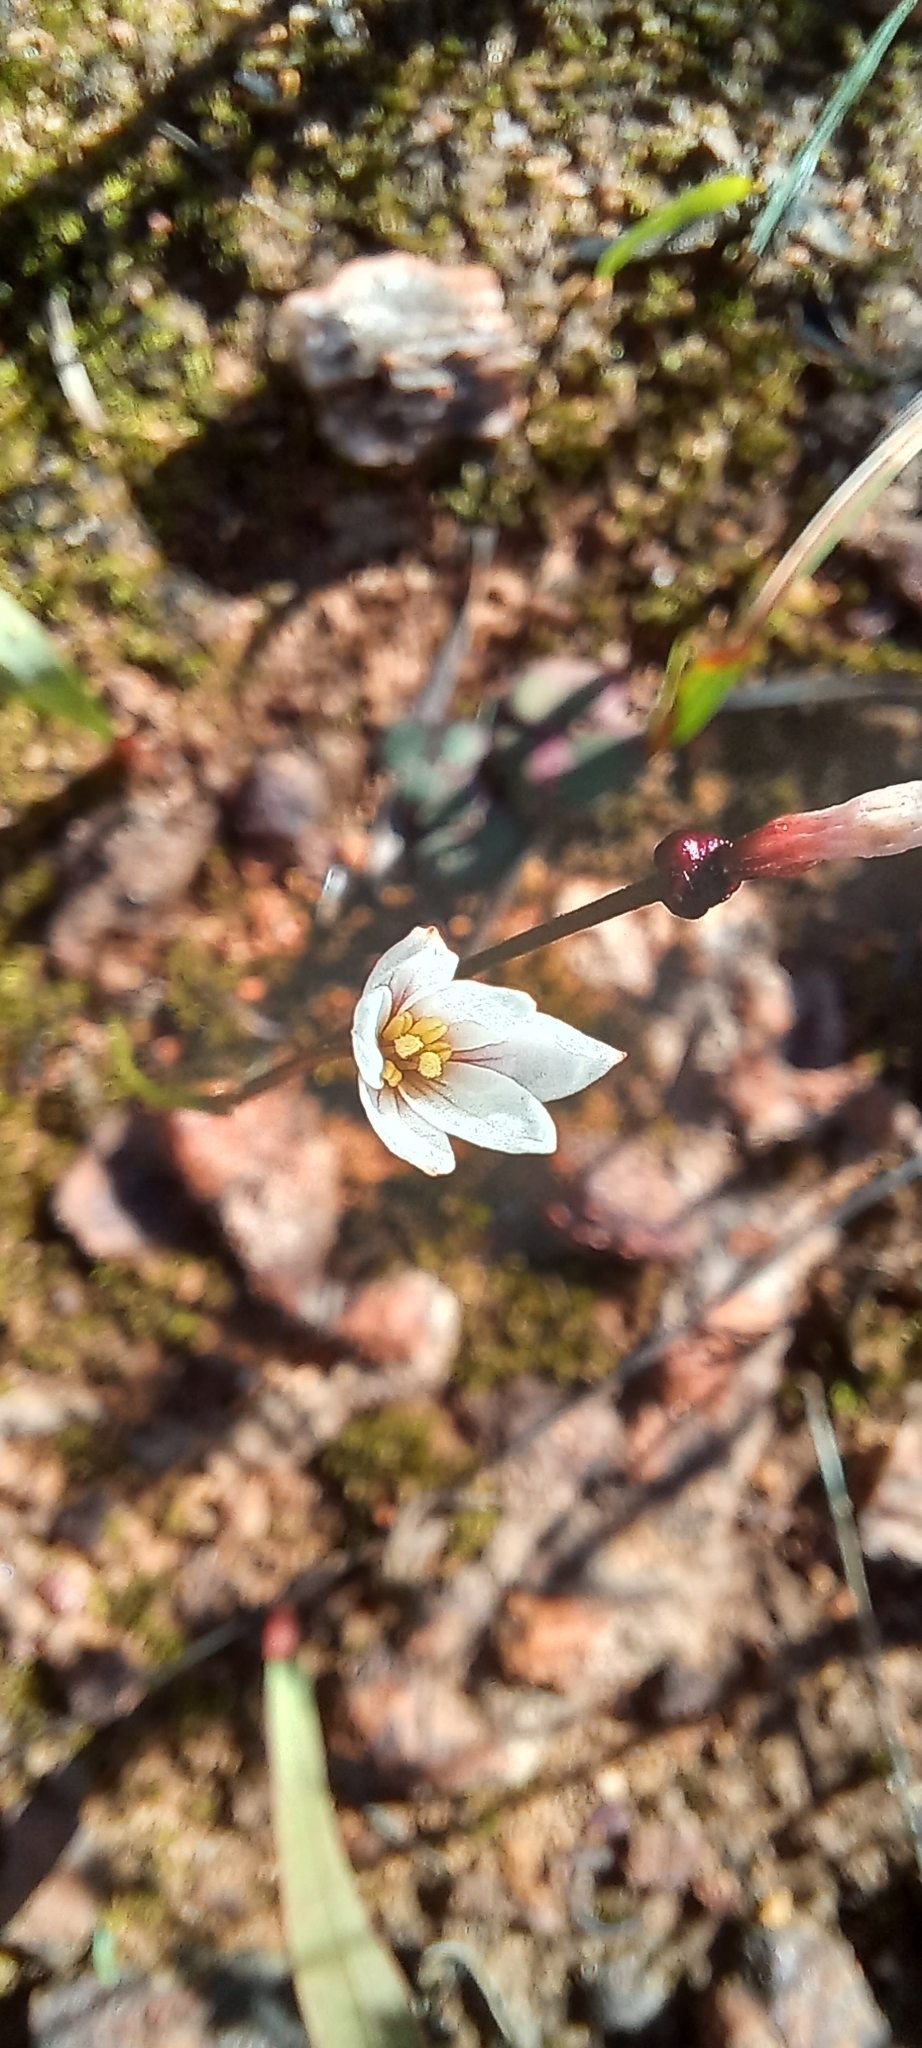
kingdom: Plantae
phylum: Tracheophyta
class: Liliopsida
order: Asparagales
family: Amaryllidaceae
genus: Strumaria
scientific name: Strumaria spiralis
